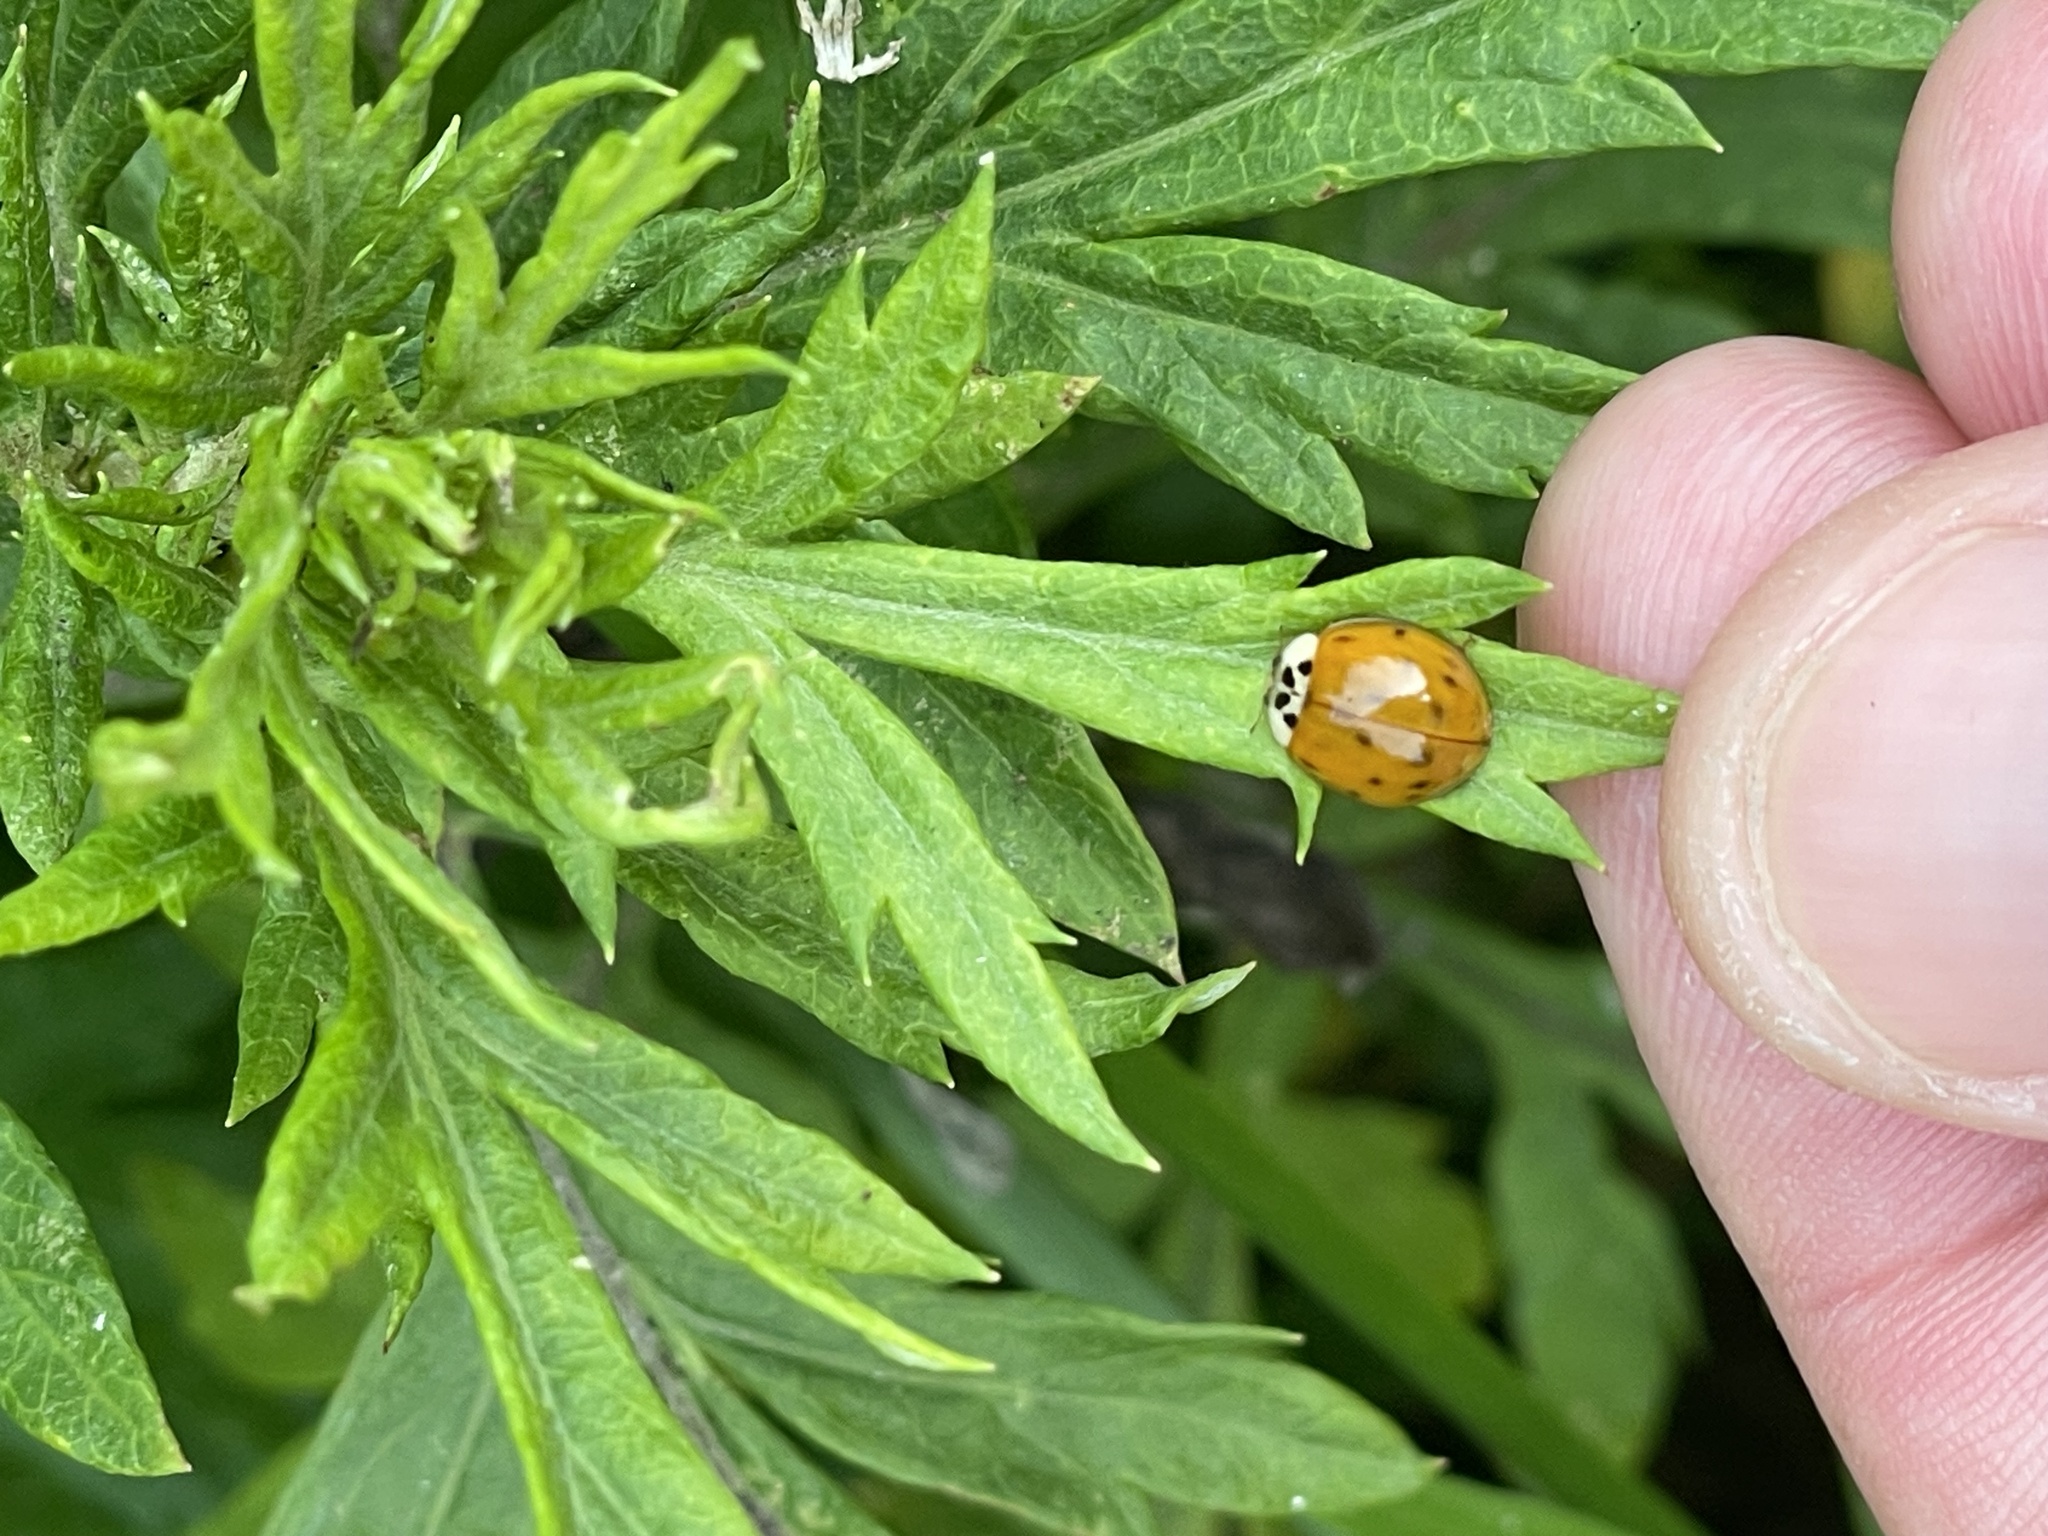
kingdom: Animalia
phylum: Arthropoda
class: Insecta
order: Coleoptera
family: Coccinellidae
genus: Harmonia
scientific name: Harmonia axyridis
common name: Harlequin ladybird
